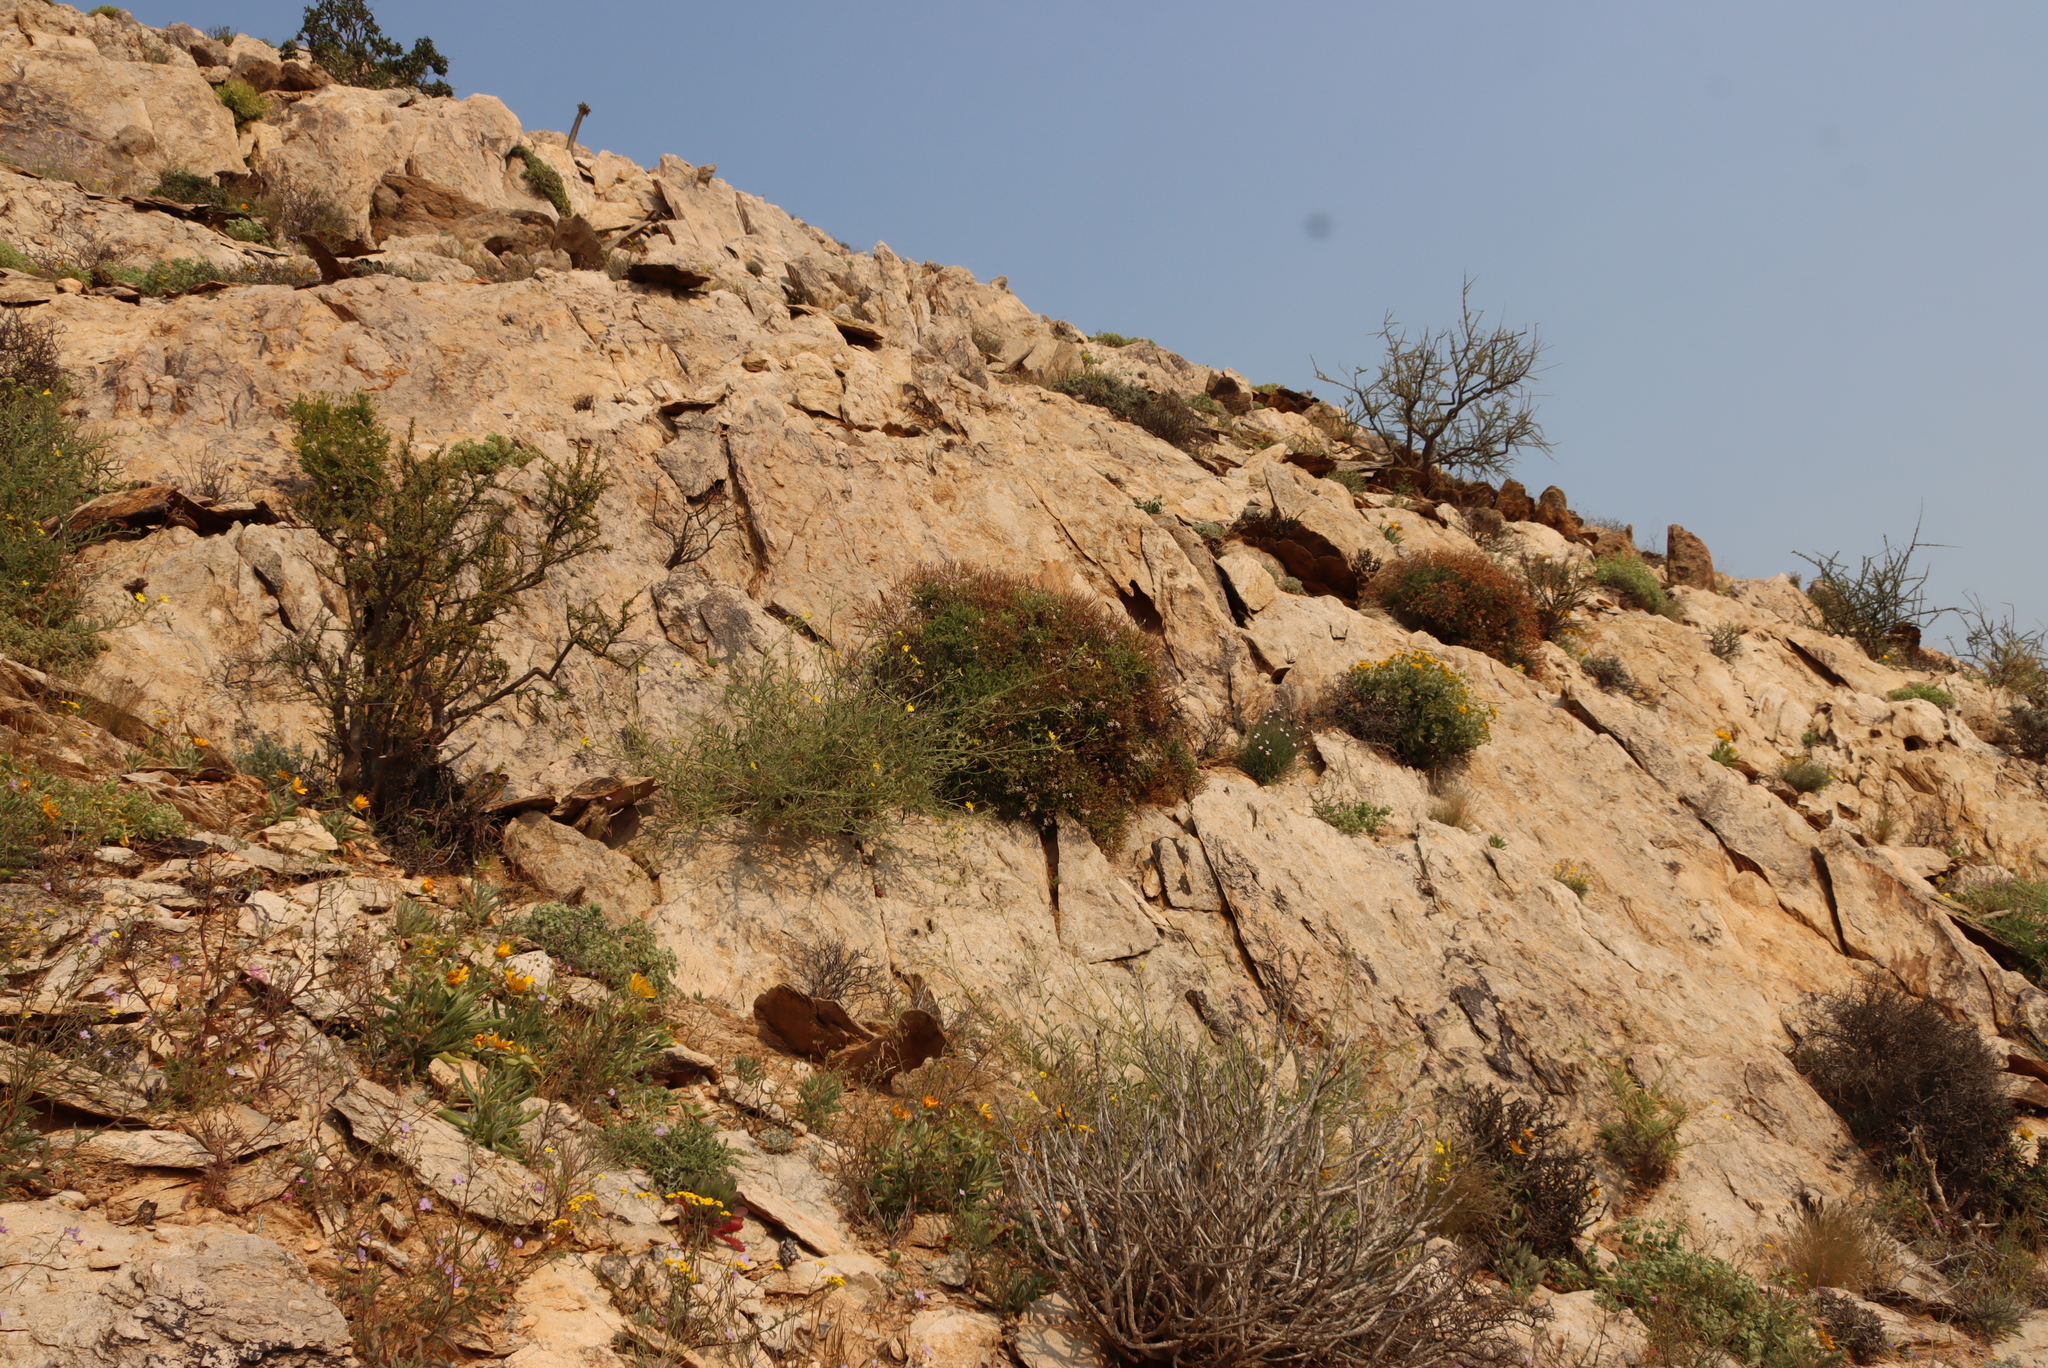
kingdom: Plantae
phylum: Tracheophyta
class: Magnoliopsida
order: Geraniales
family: Geraniaceae
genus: Pelargonium
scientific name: Pelargonium crithmifolium
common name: Samphire-leaf pelargonium
